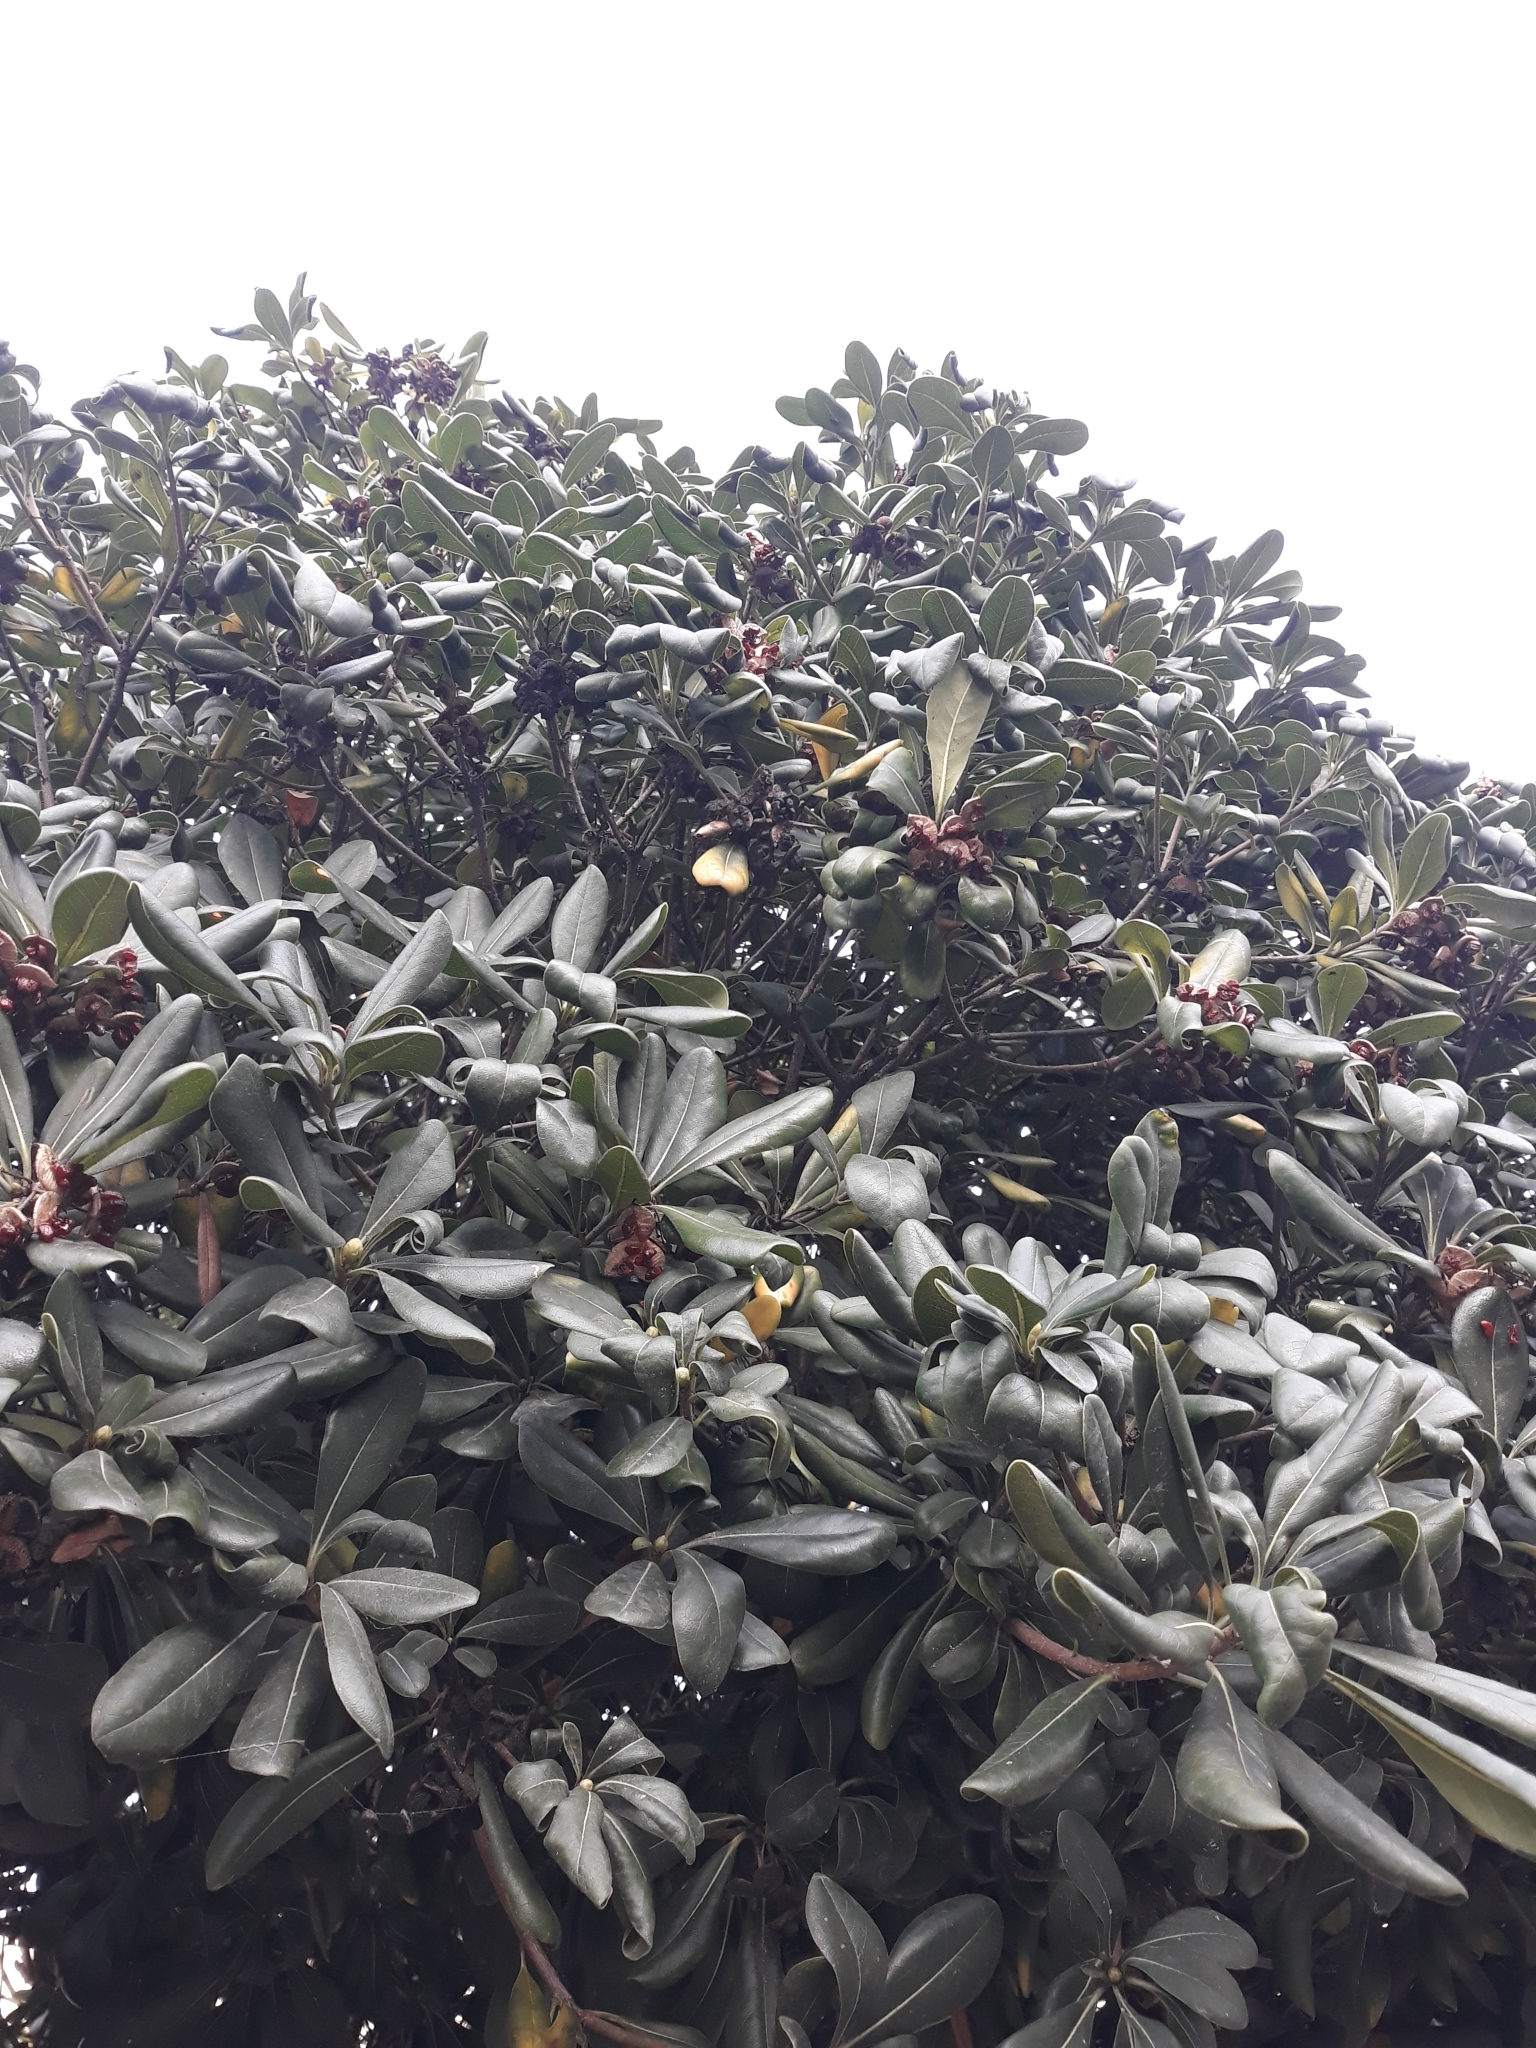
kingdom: Plantae
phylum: Tracheophyta
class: Magnoliopsida
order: Apiales
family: Pittosporaceae
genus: Pittosporum
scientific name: Pittosporum tobira
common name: Japanese cheesewood
